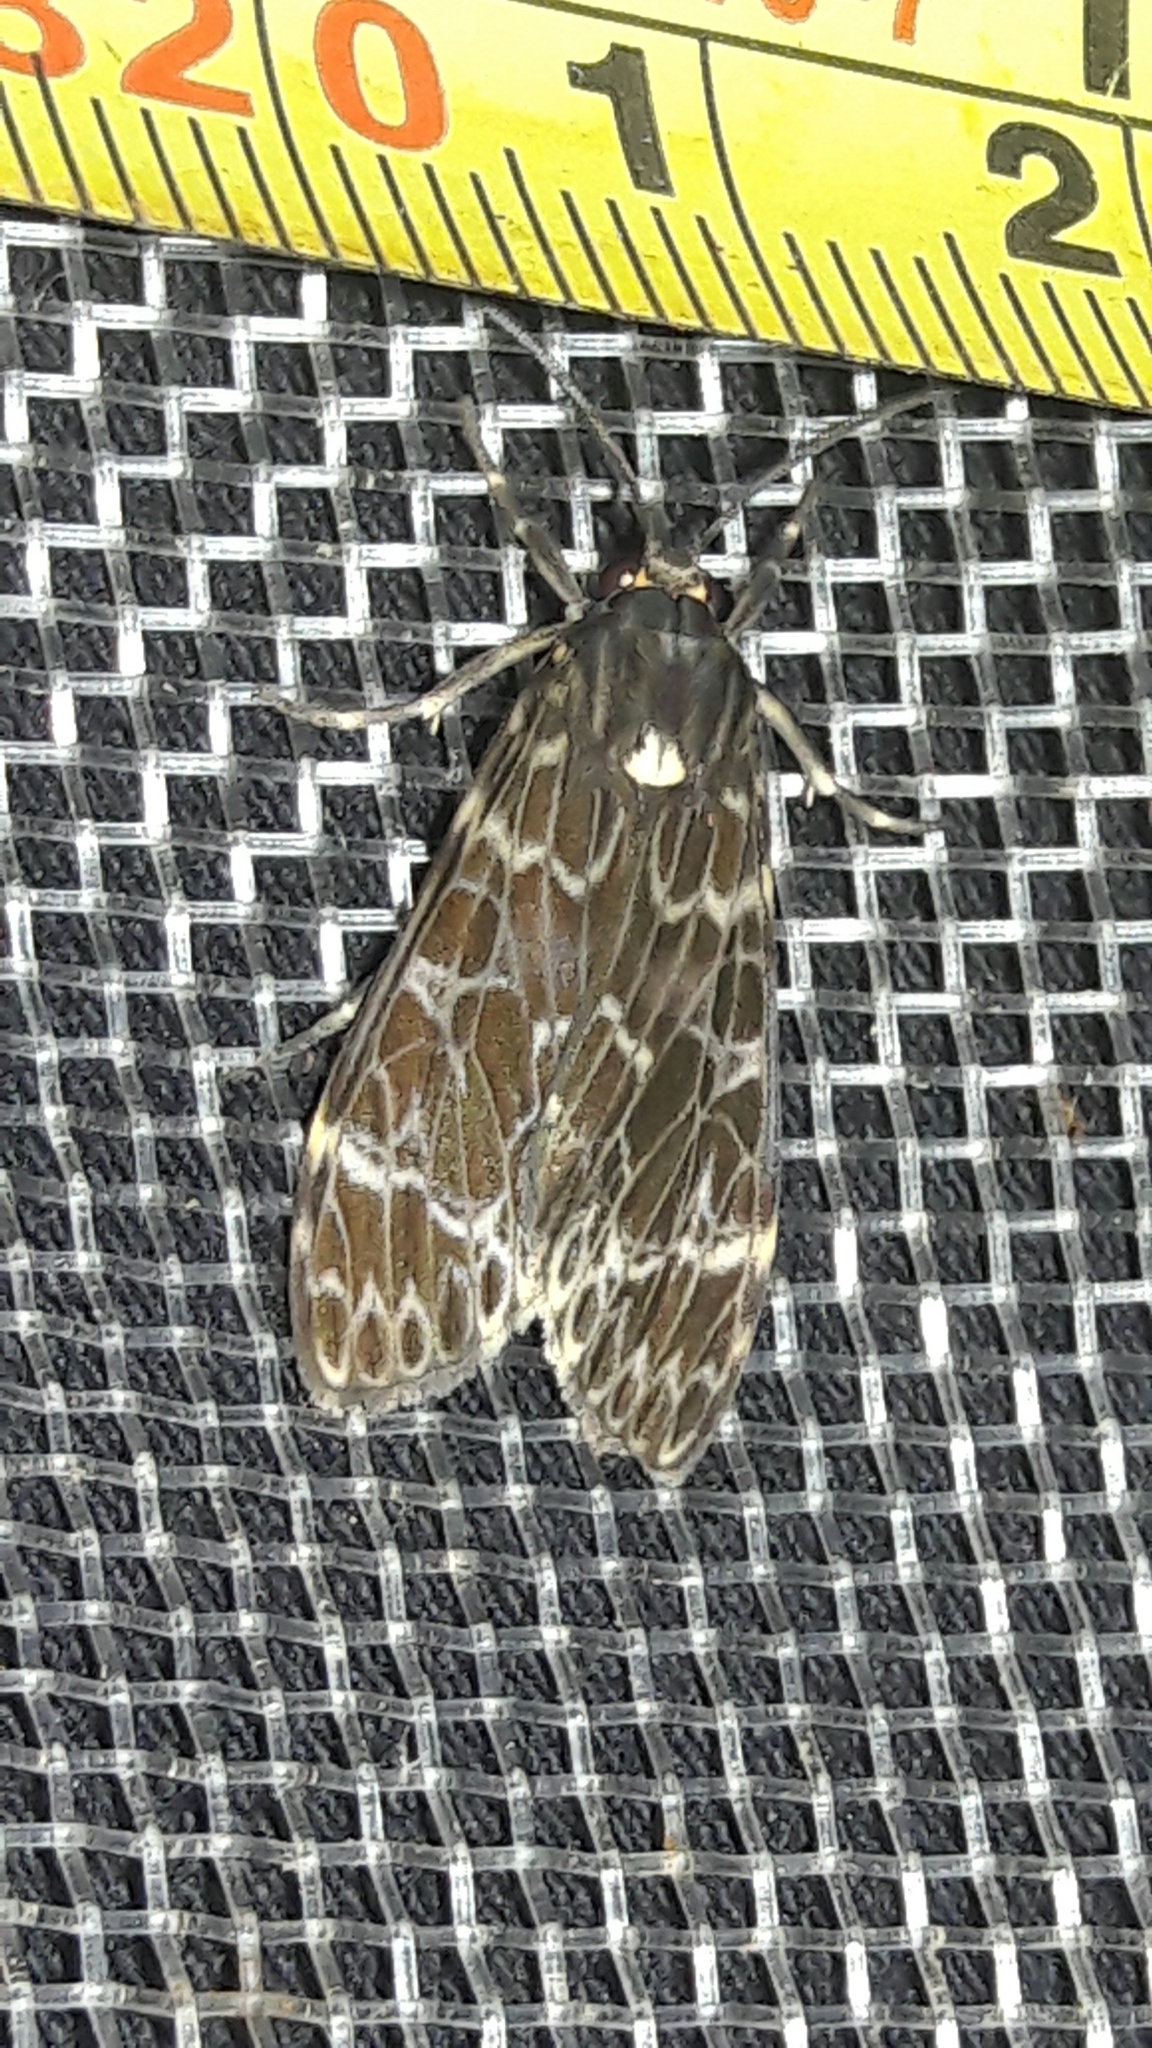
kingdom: Animalia
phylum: Arthropoda
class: Insecta
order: Lepidoptera
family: Erebidae
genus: Eucereon
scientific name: Eucereon sylvius
